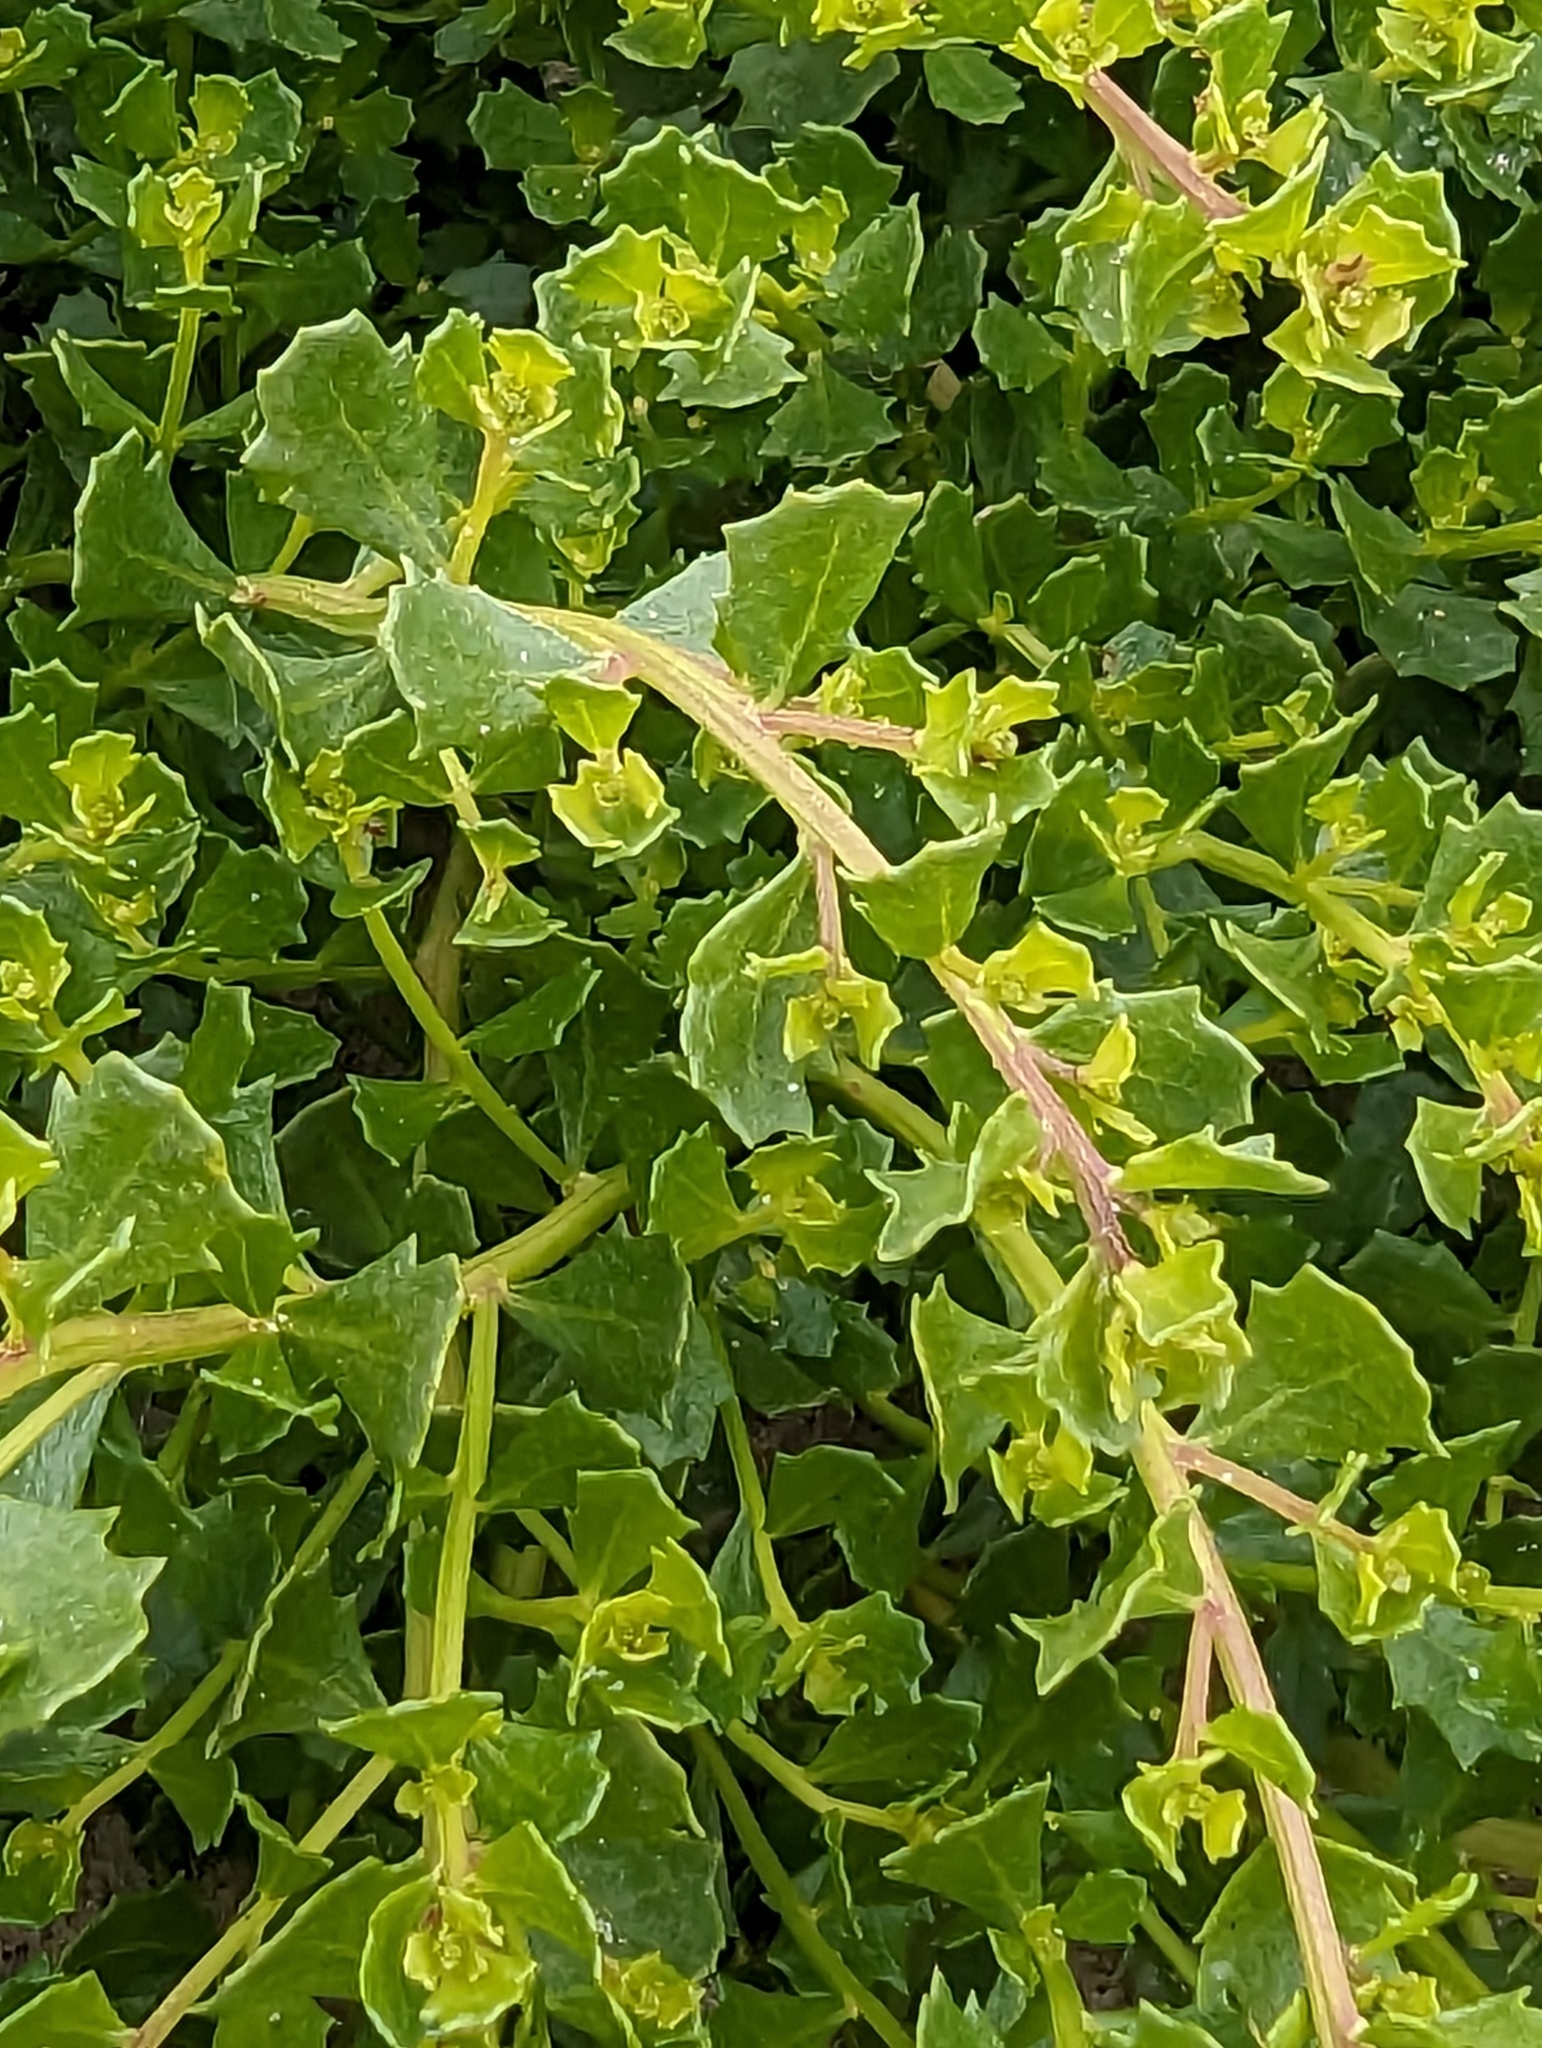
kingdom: Plantae
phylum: Tracheophyta
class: Magnoliopsida
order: Asterales
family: Asteraceae
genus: Baccharis
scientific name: Baccharis pilularis
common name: Coyotebrush
